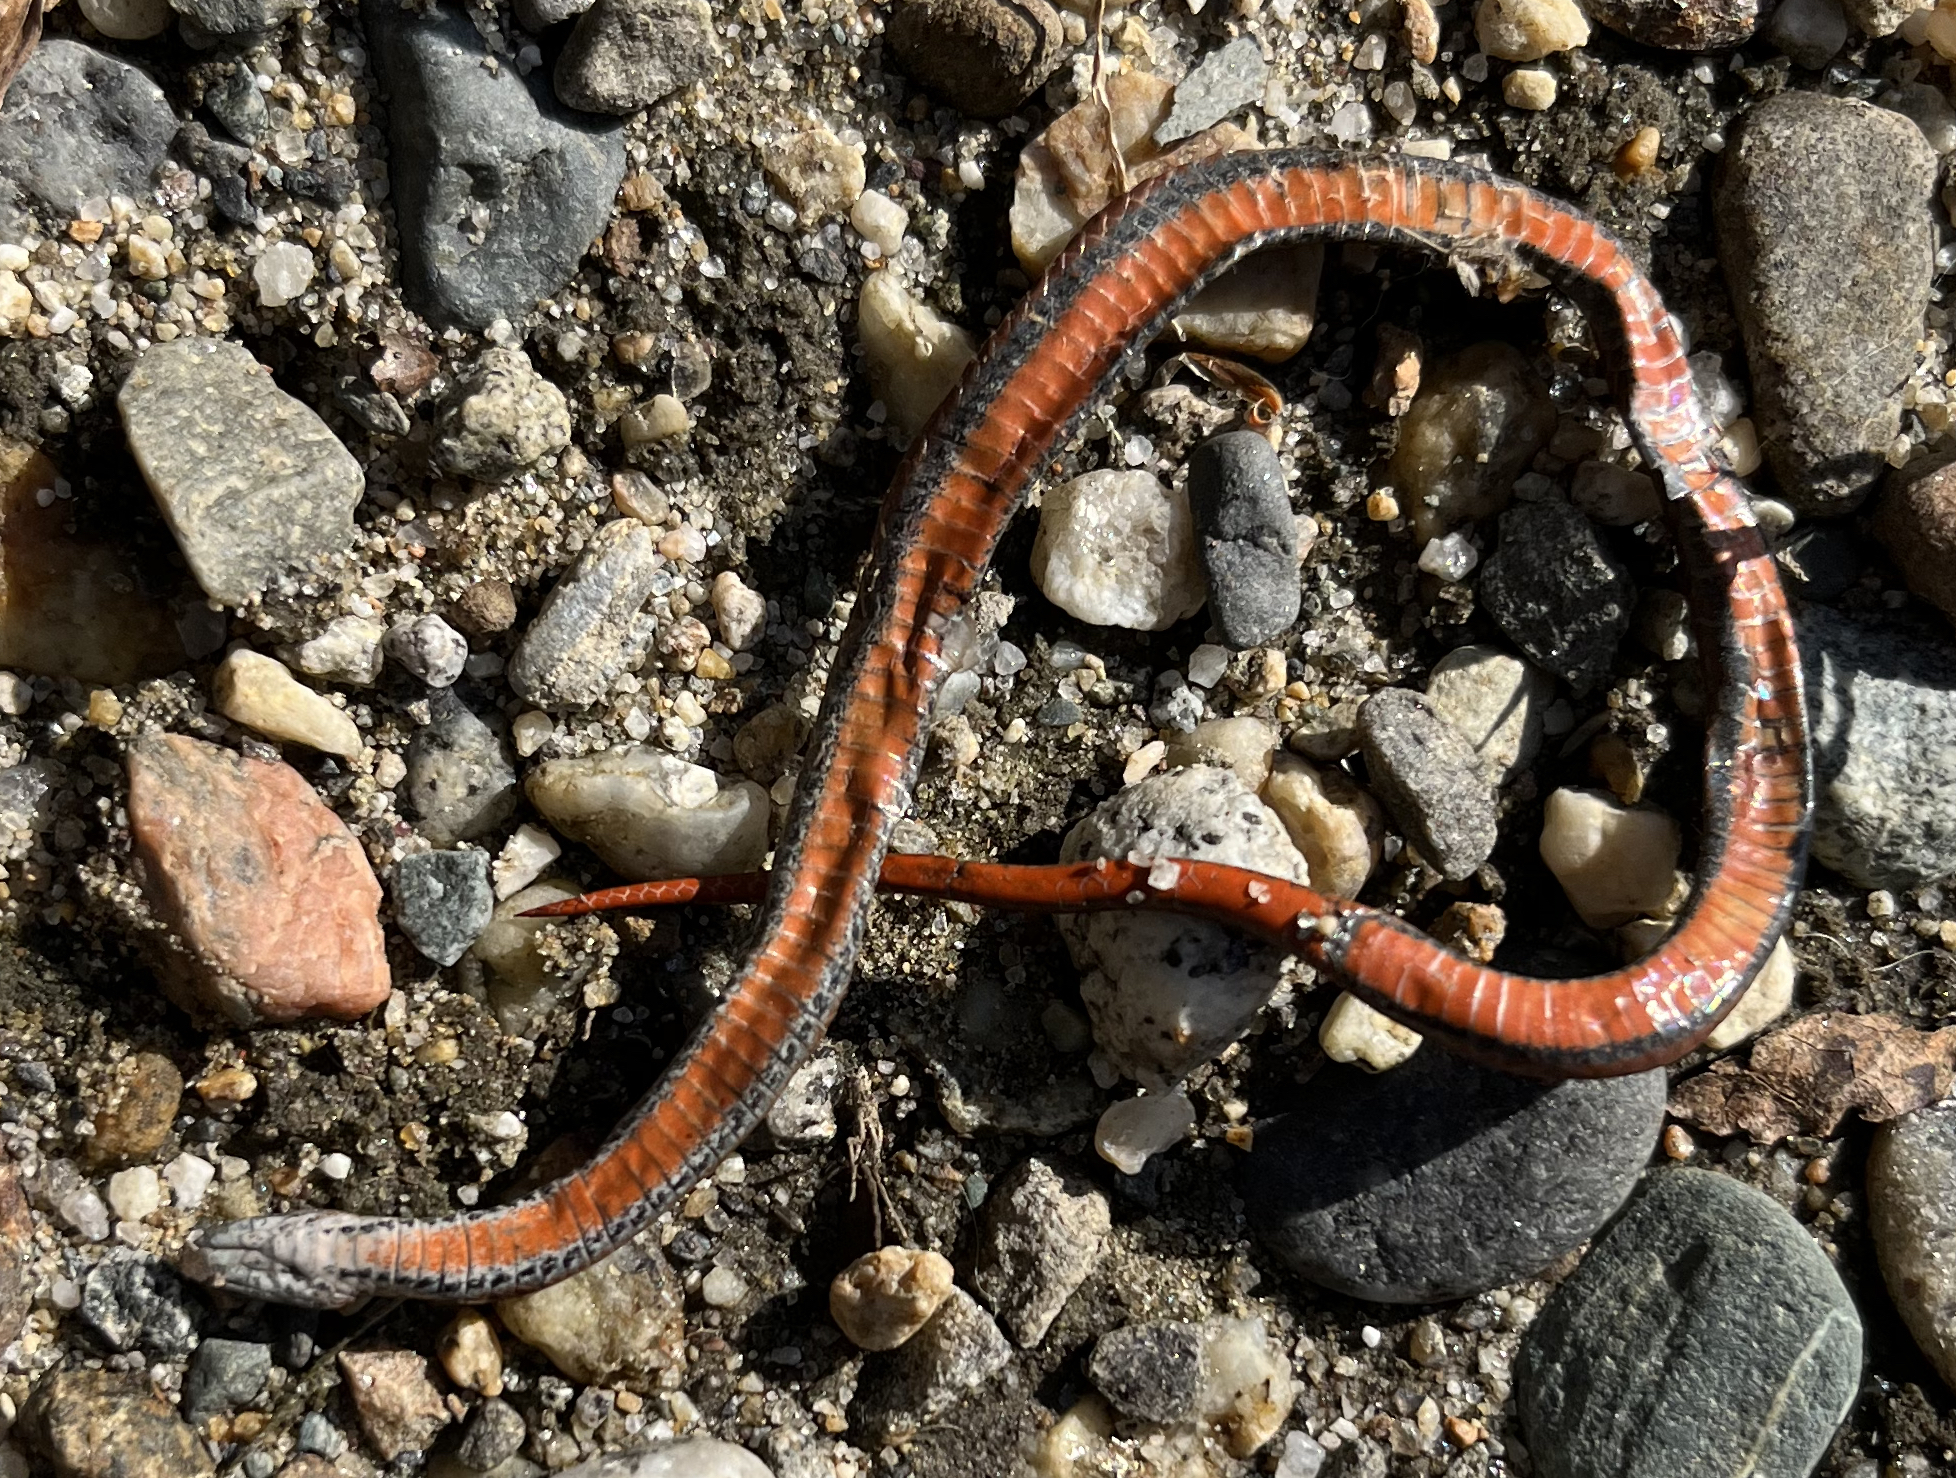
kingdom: Animalia
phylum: Chordata
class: Squamata
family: Colubridae
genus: Storeria
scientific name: Storeria occipitomaculata
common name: Redbelly snake
